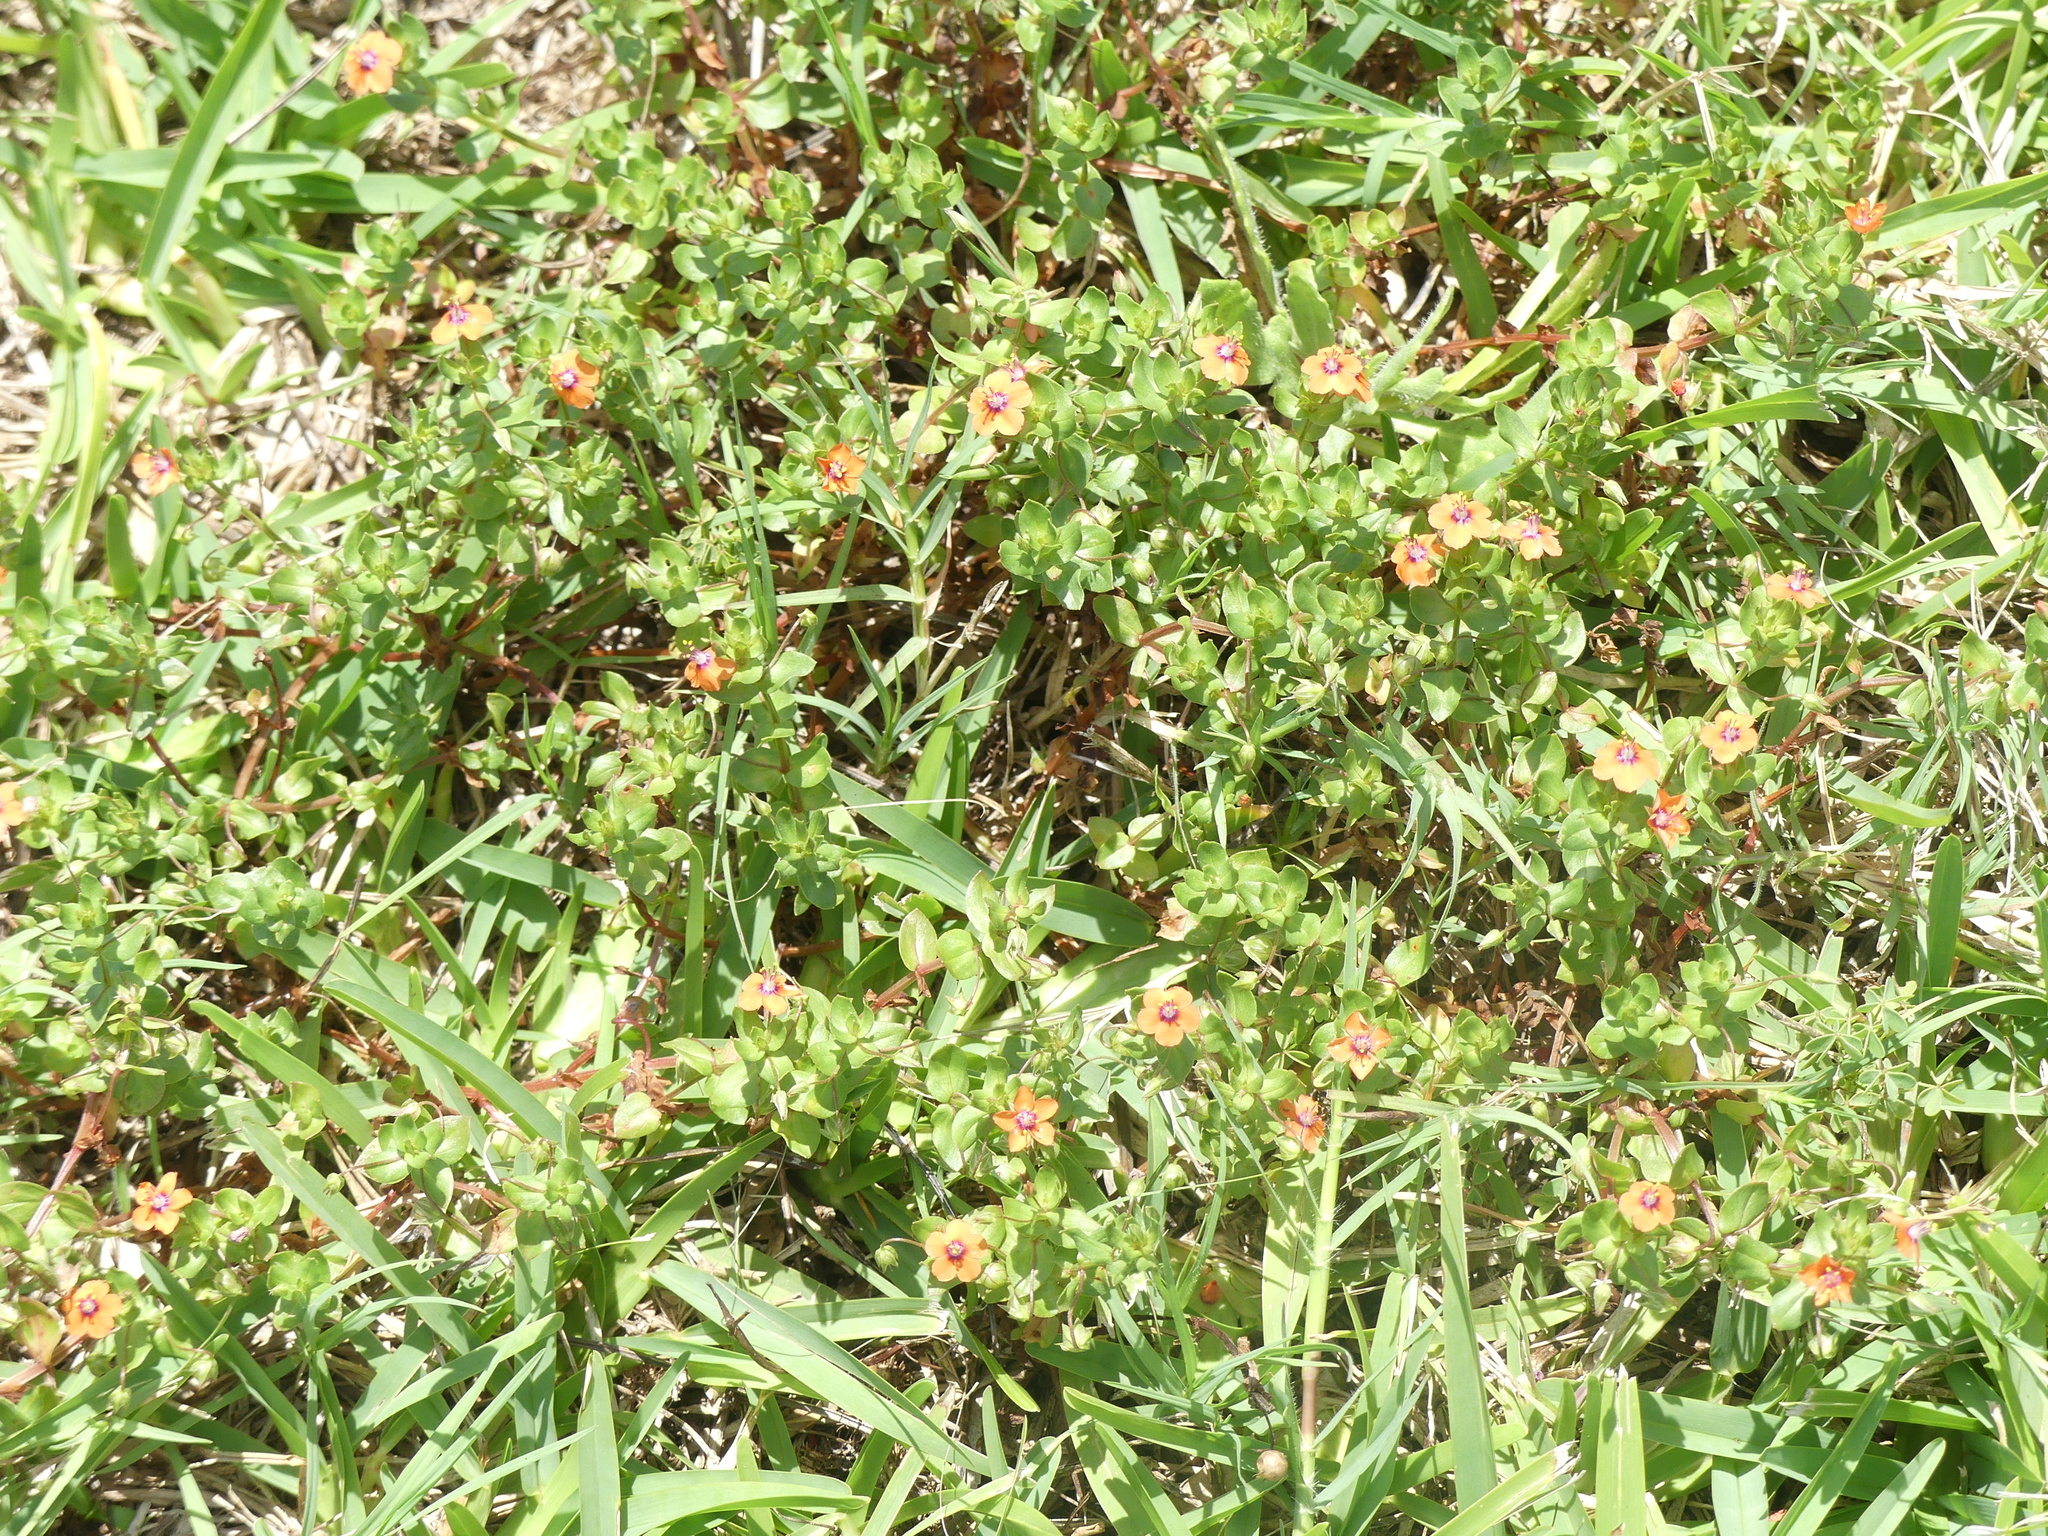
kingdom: Plantae
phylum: Tracheophyta
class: Magnoliopsida
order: Ericales
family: Primulaceae
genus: Lysimachia
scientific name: Lysimachia arvensis
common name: Scarlet pimpernel
